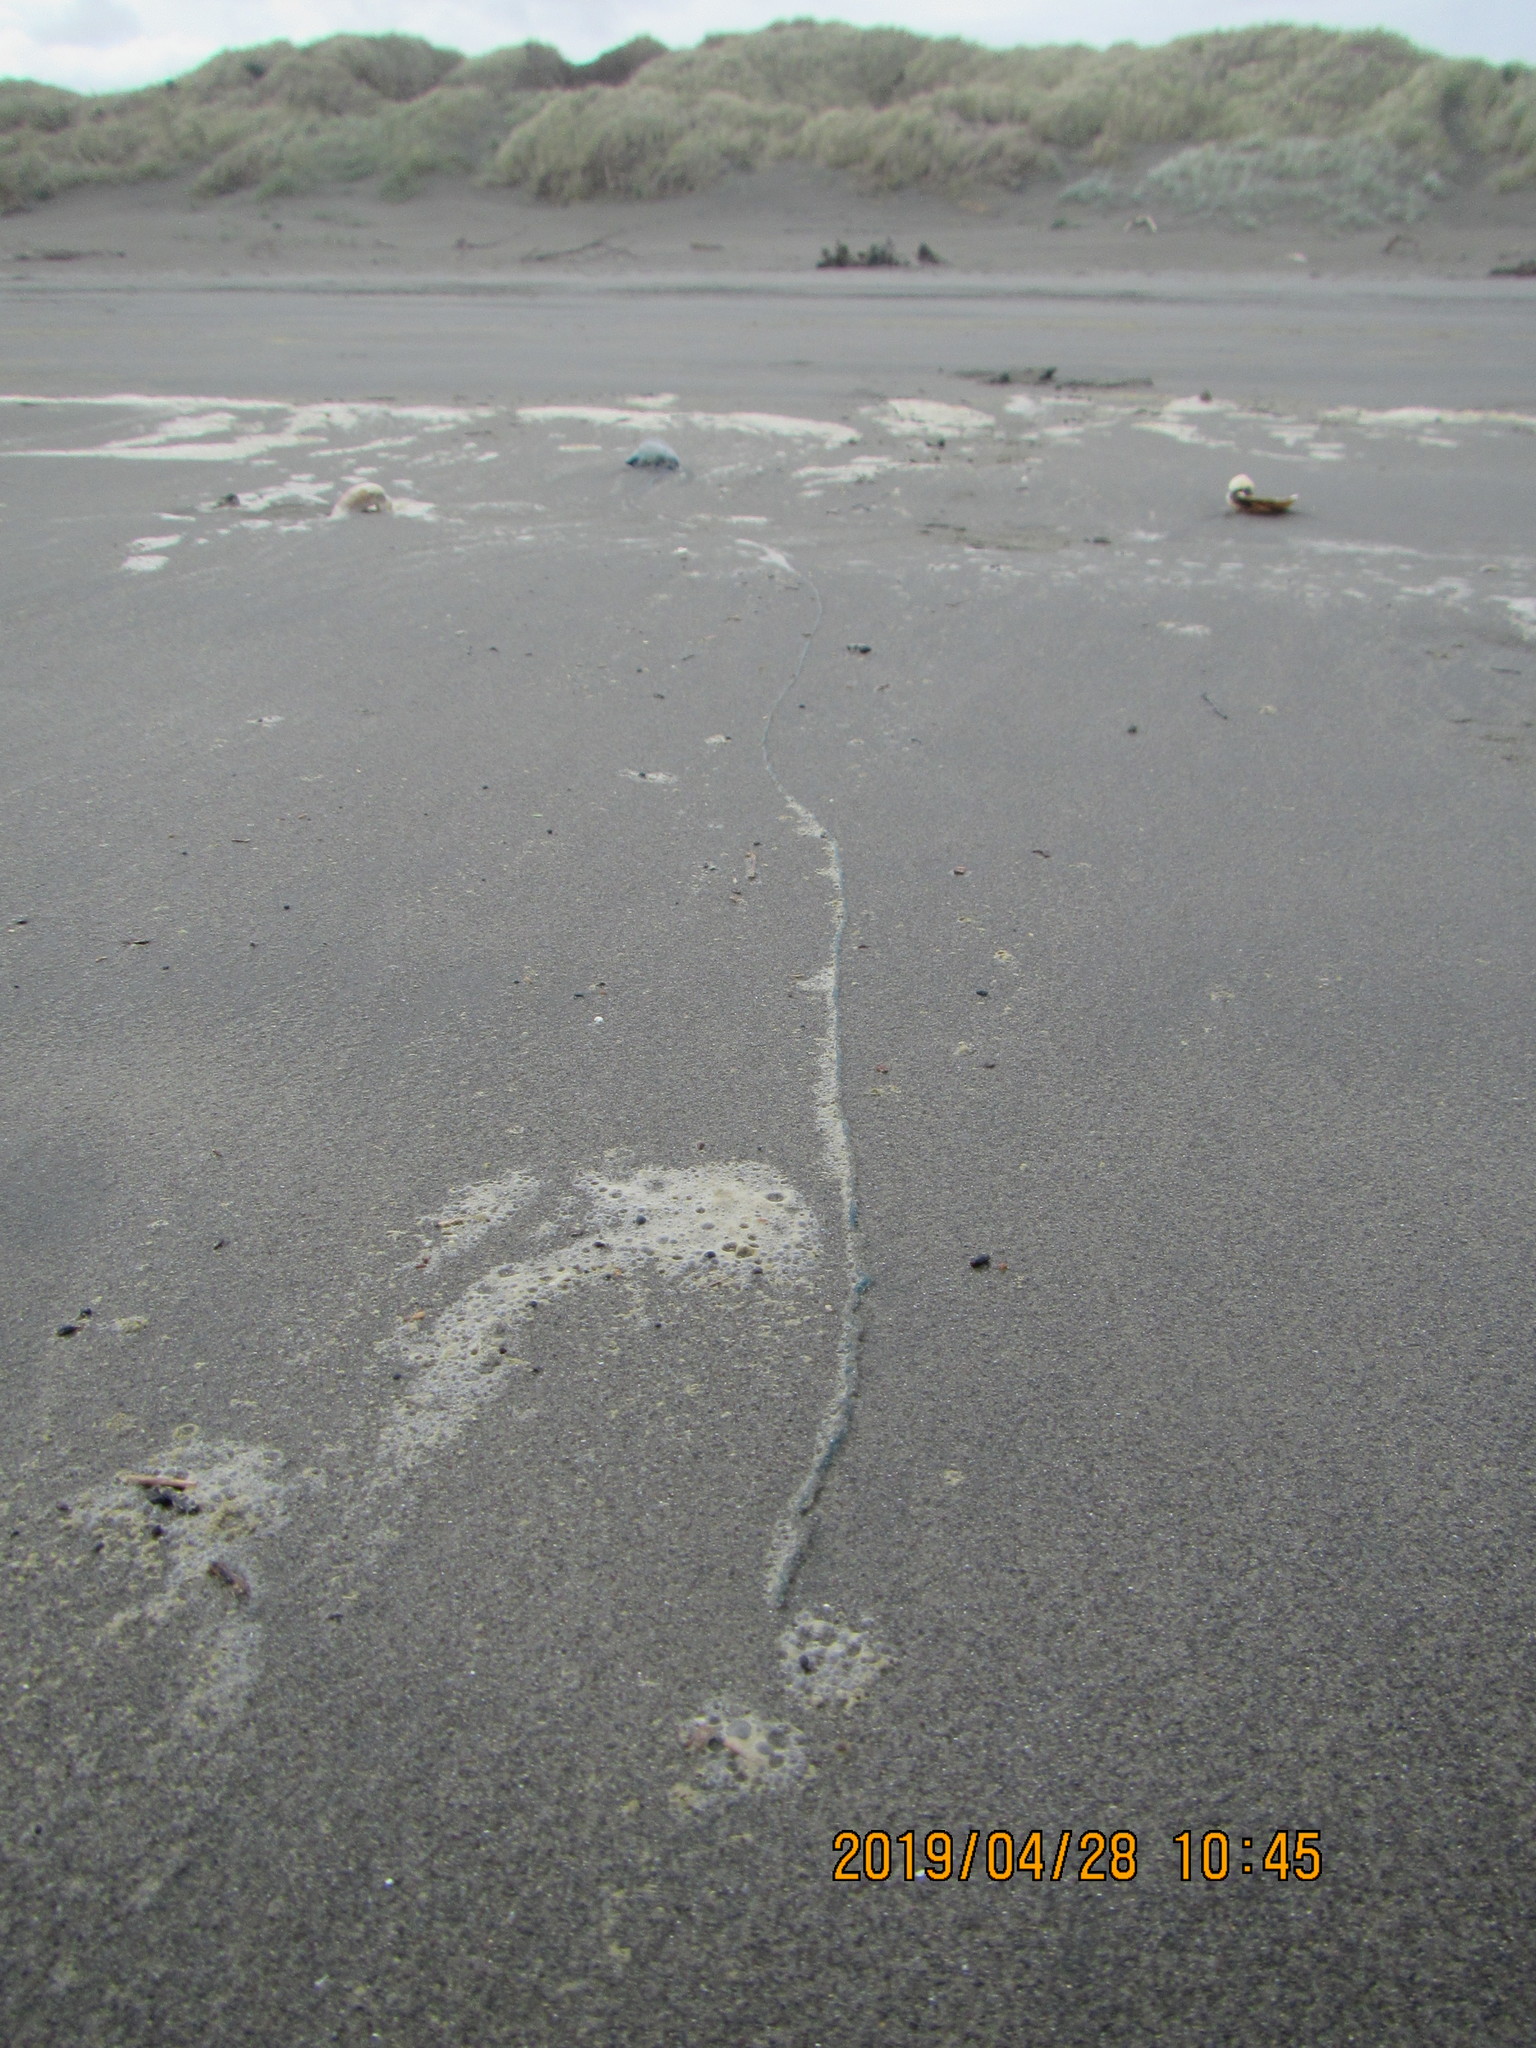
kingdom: Animalia
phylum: Cnidaria
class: Hydrozoa
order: Siphonophorae
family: Physaliidae
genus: Physalia
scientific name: Physalia physalis
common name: Portuguese man-of-war
